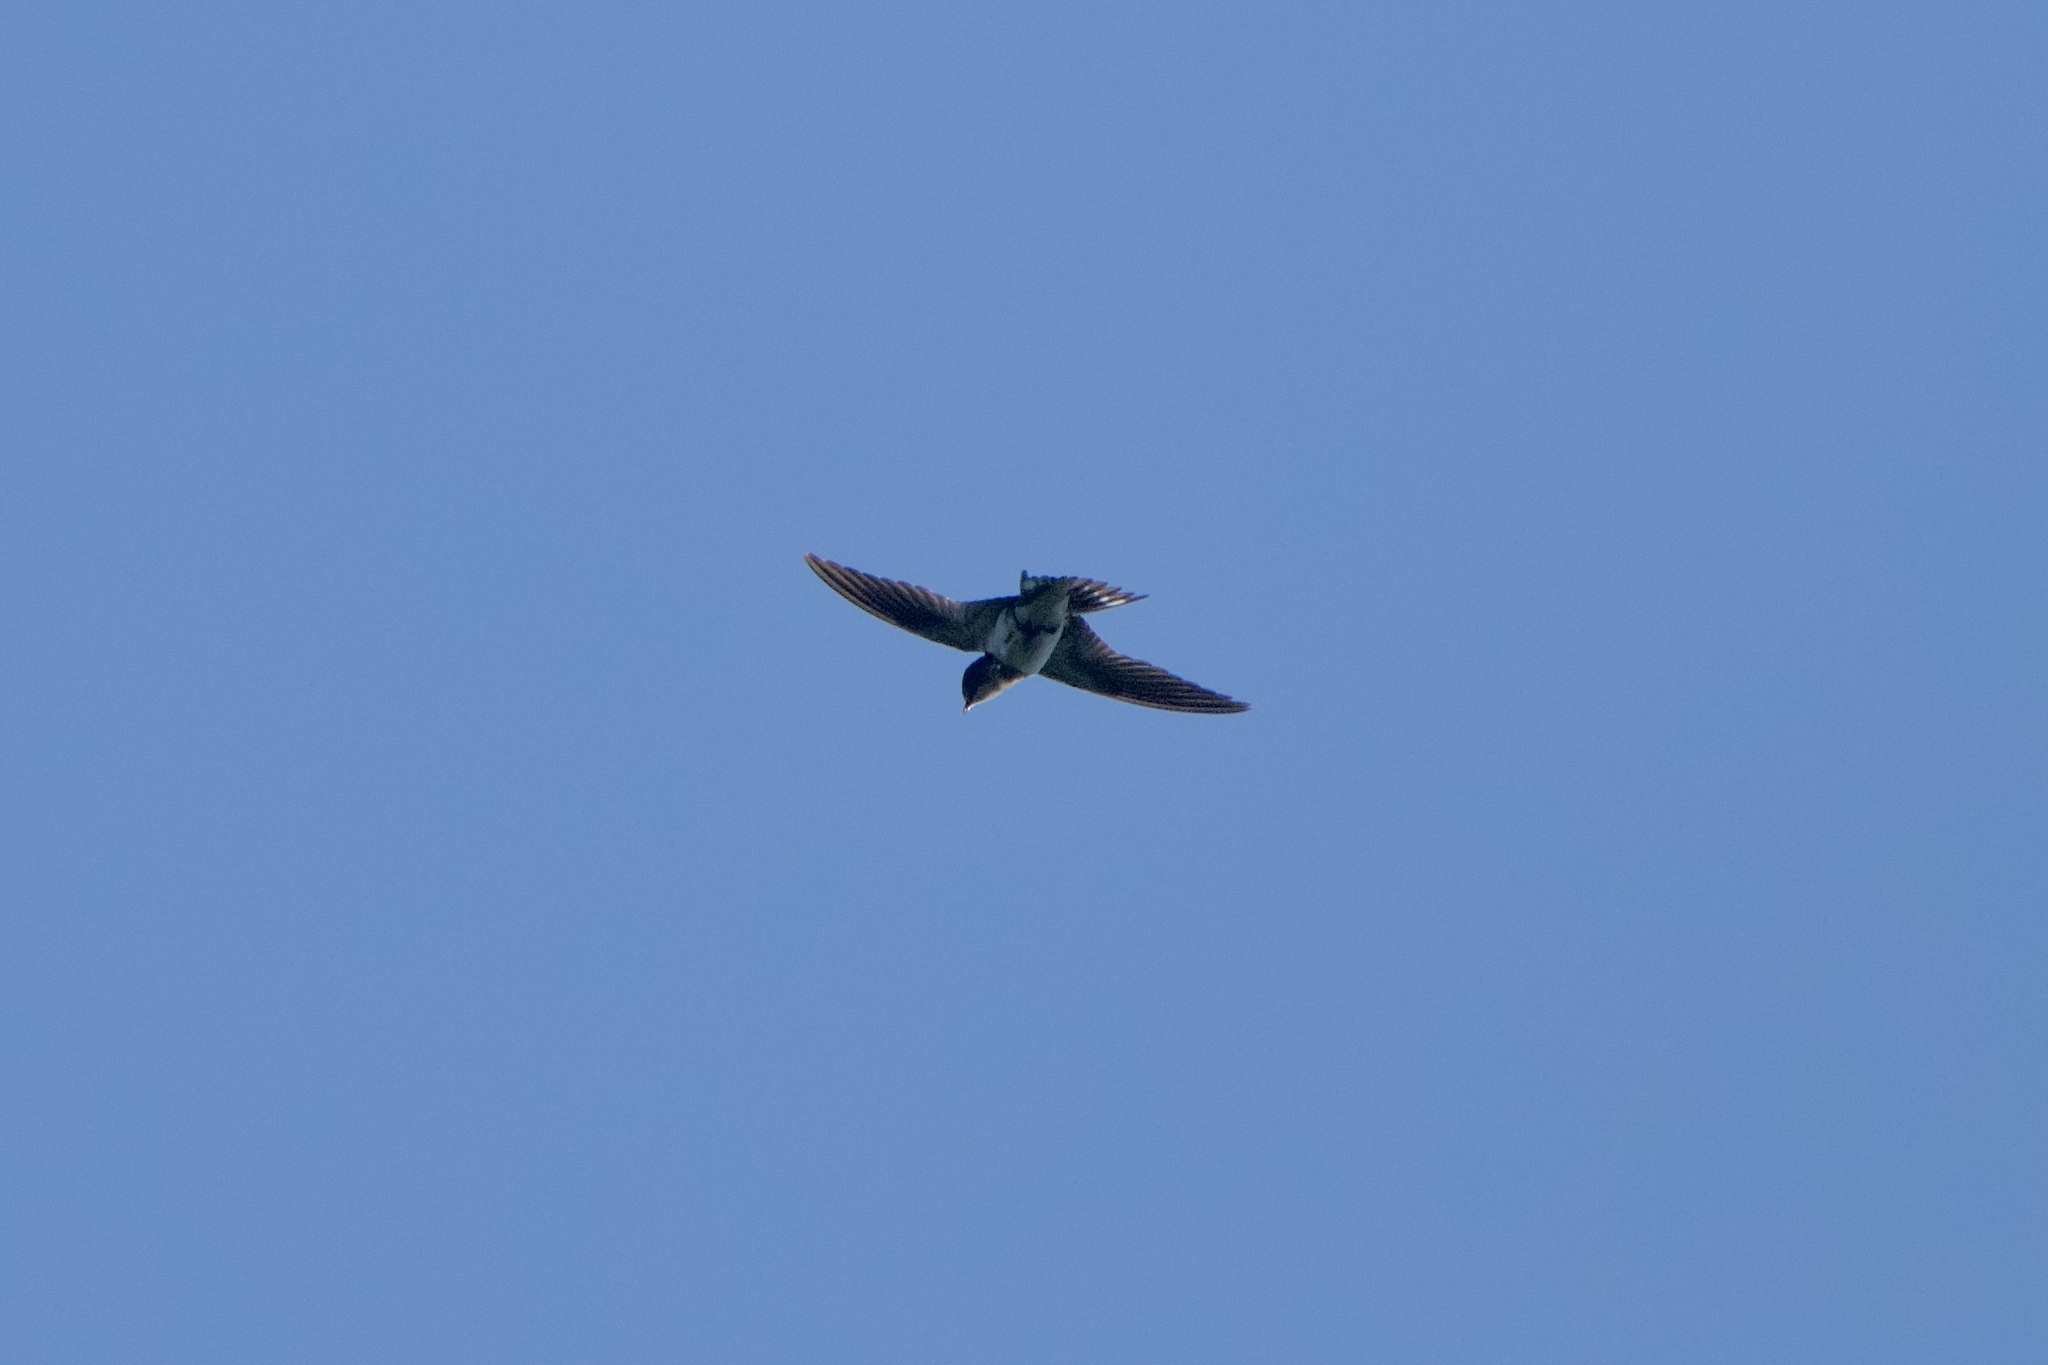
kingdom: Animalia
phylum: Chordata
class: Aves
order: Passeriformes
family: Hirundinidae
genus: Hirundo
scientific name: Hirundo rustica
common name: Barn swallow
